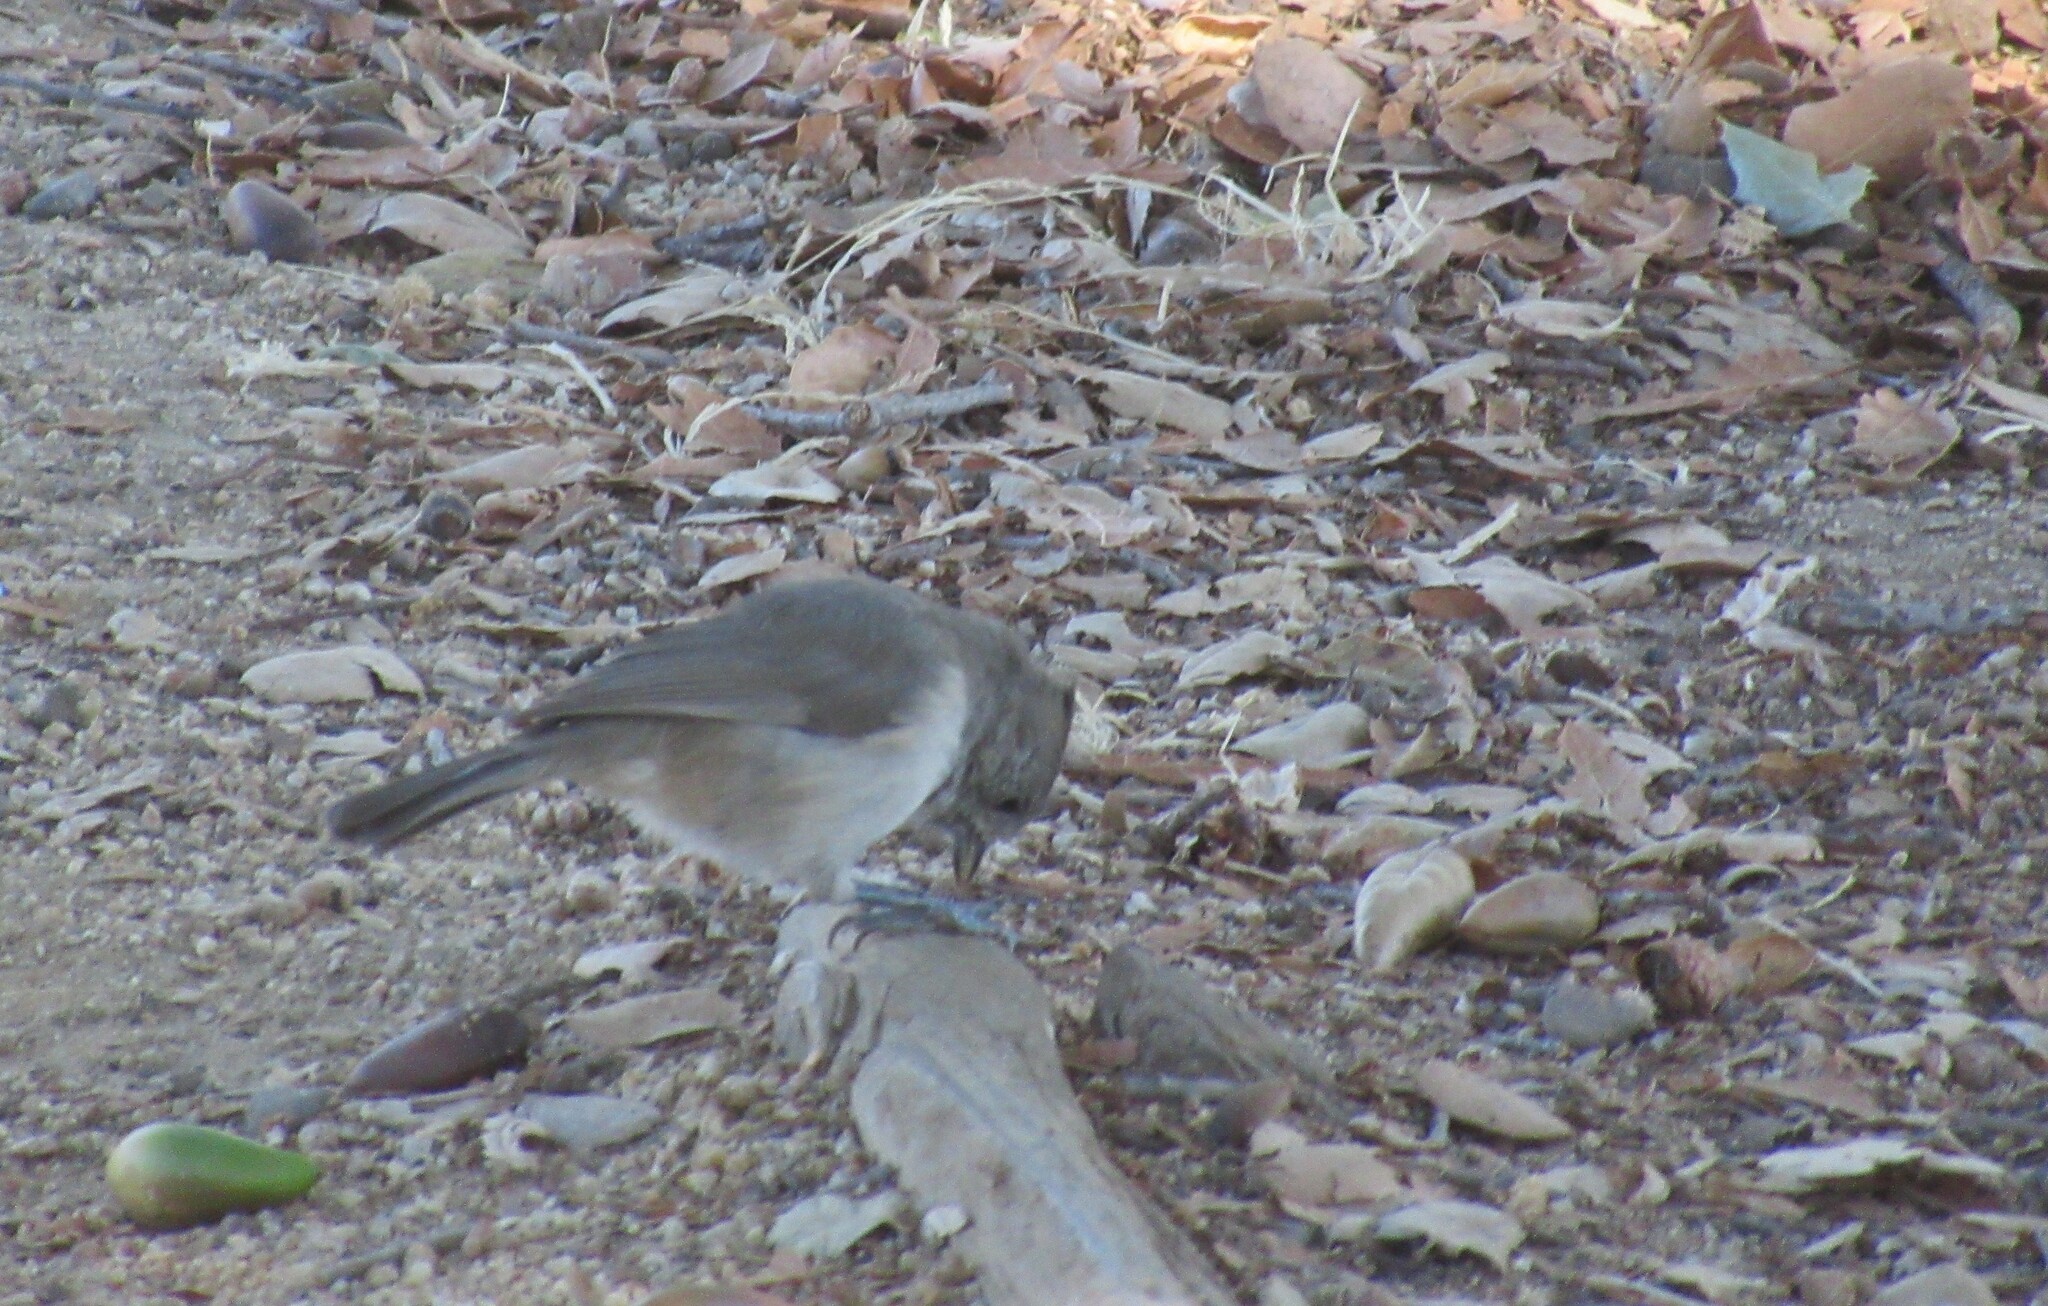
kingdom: Animalia
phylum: Chordata
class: Aves
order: Passeriformes
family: Paridae
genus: Baeolophus
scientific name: Baeolophus inornatus
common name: Oak titmouse
